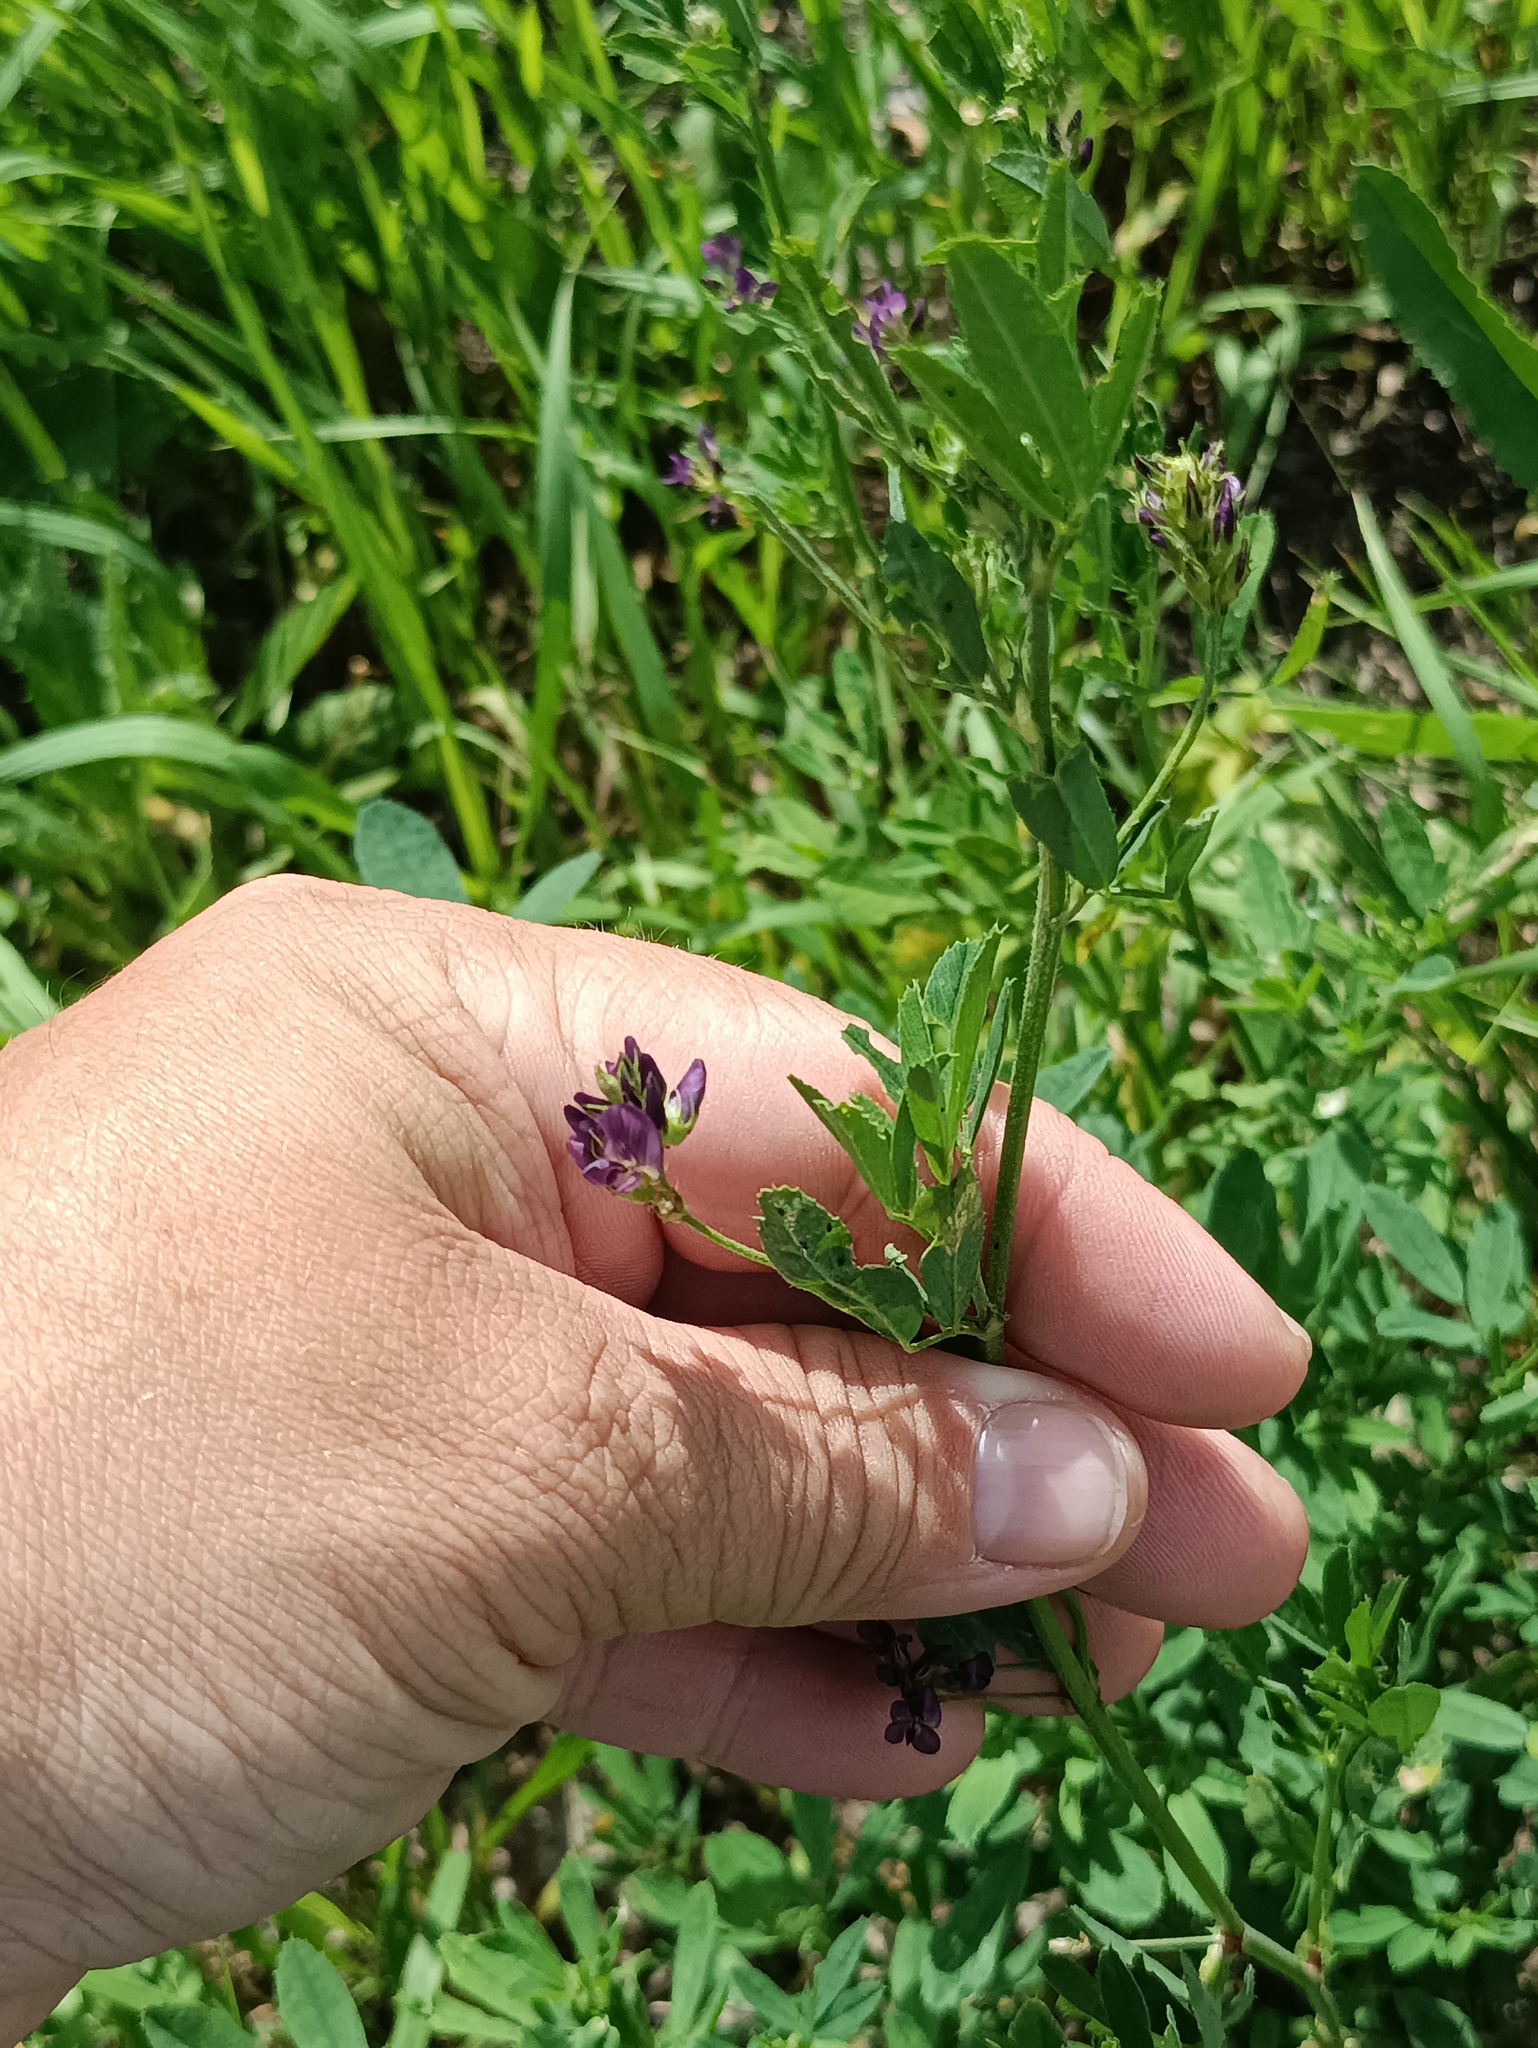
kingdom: Plantae
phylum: Tracheophyta
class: Magnoliopsida
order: Fabales
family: Fabaceae
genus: Medicago
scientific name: Medicago sativa
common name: Alfalfa
